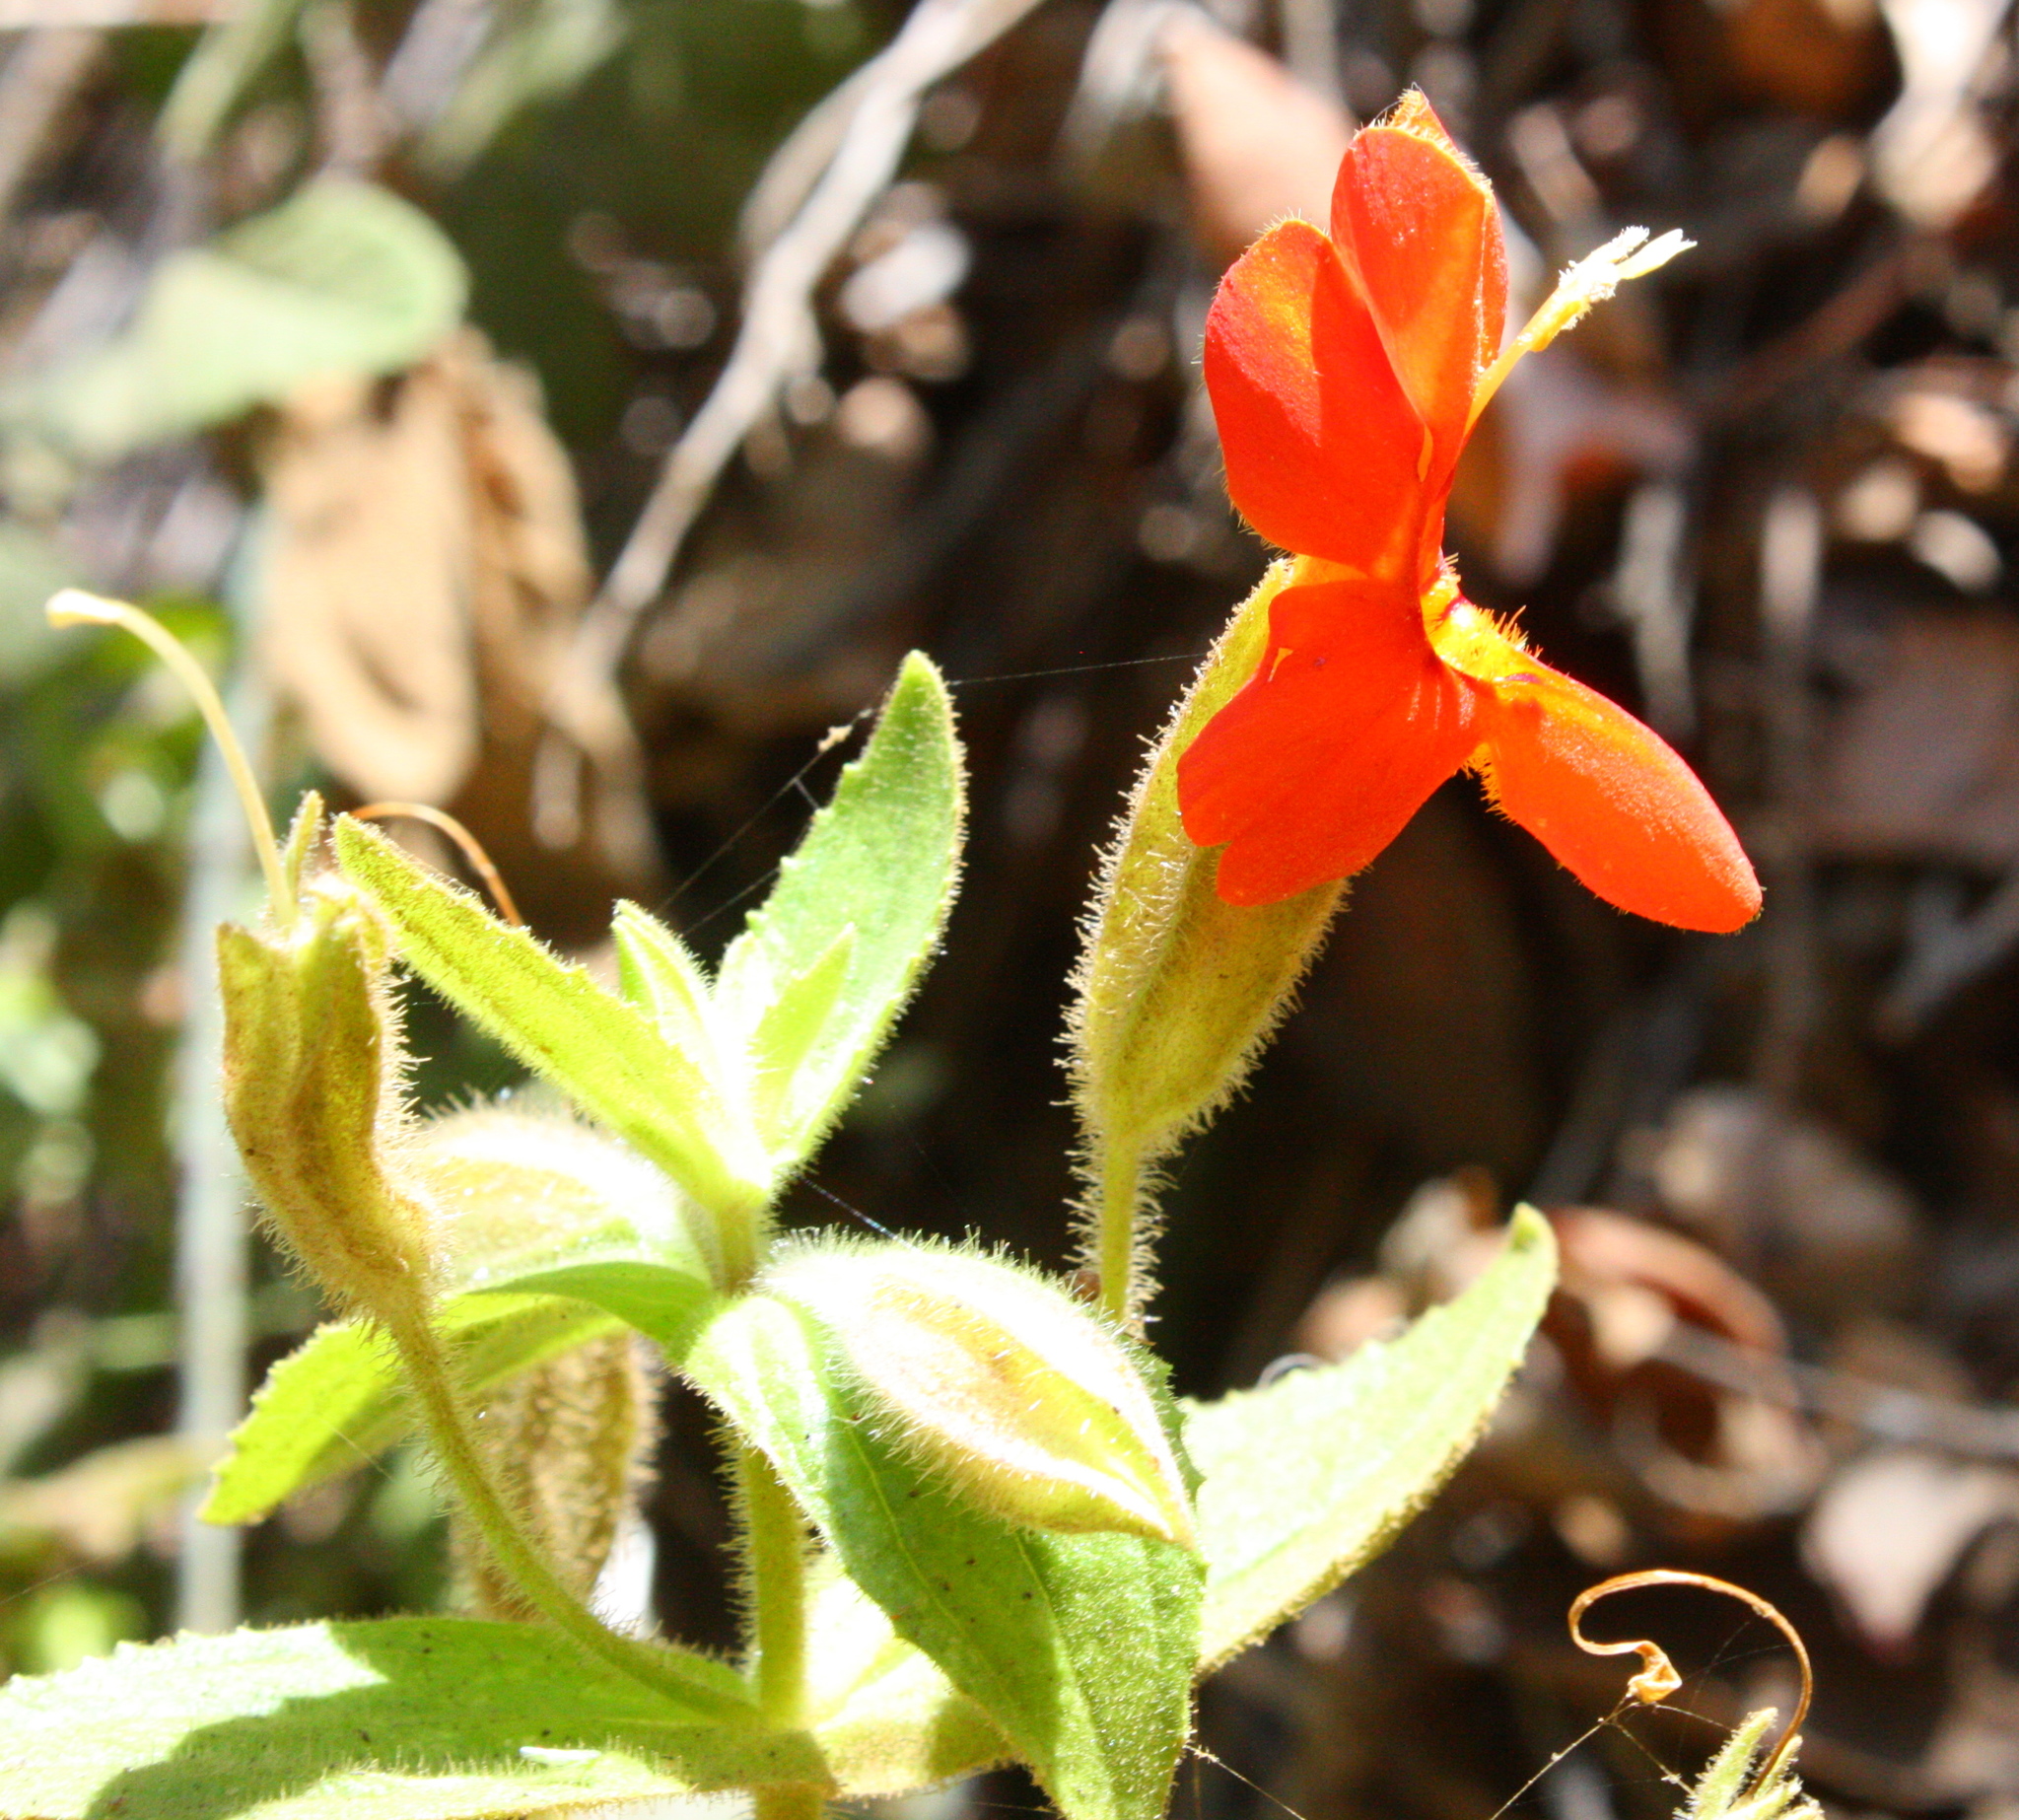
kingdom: Plantae
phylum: Tracheophyta
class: Magnoliopsida
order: Lamiales
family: Phrymaceae
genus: Erythranthe
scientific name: Erythranthe cardinalis
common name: Scarlet monkey-flower
